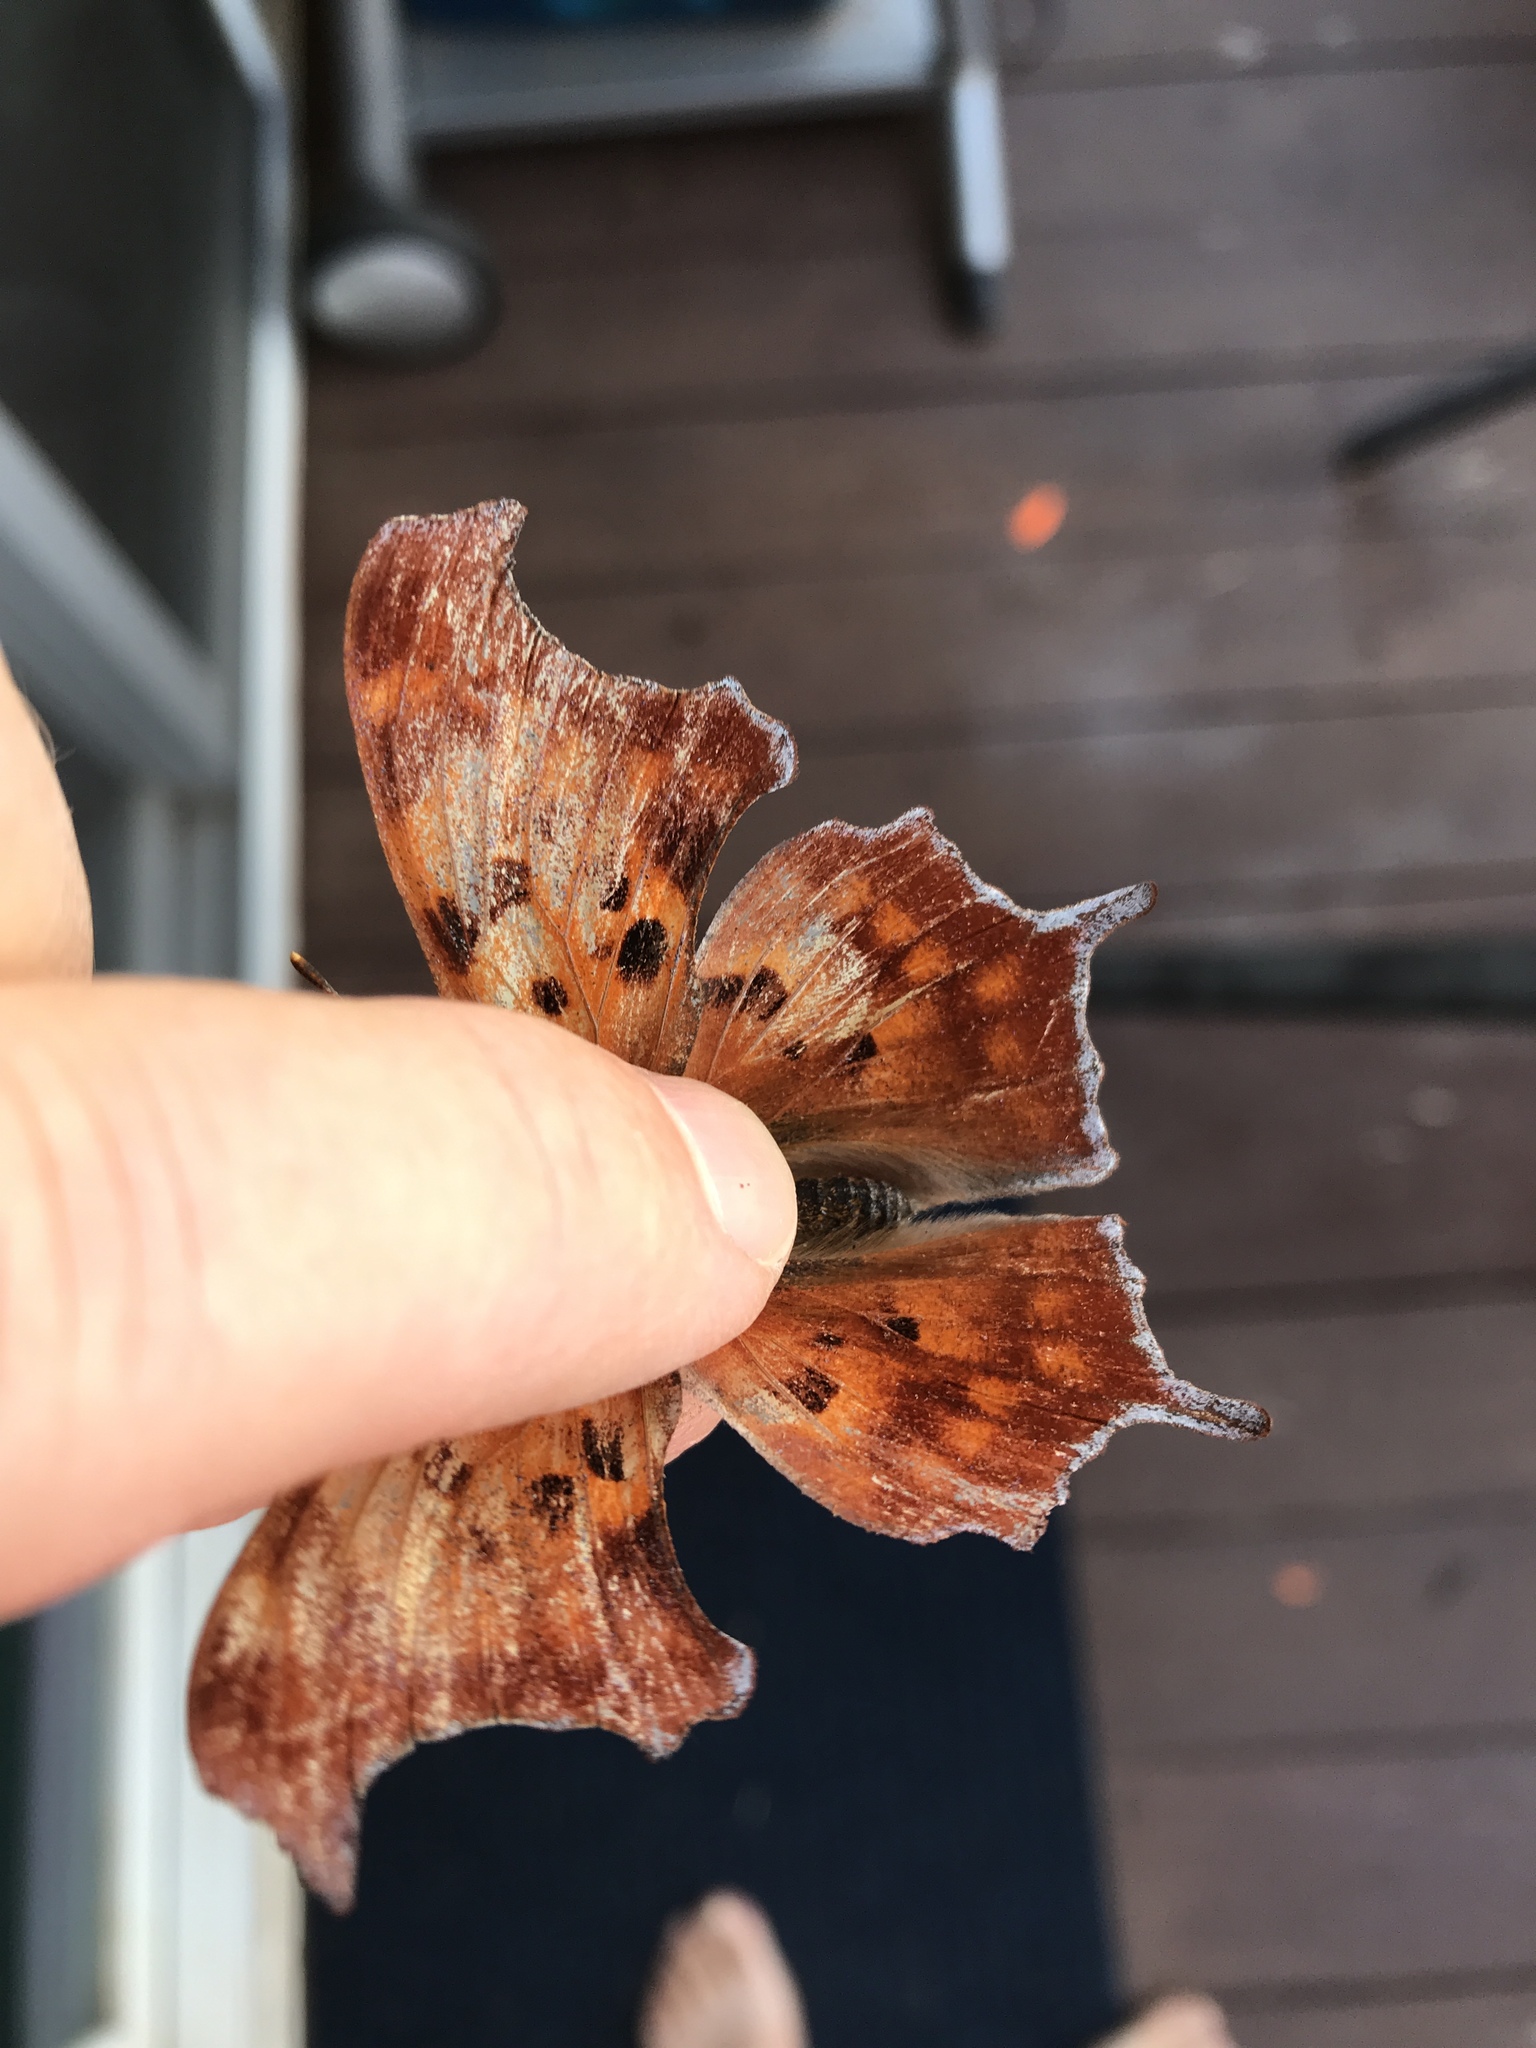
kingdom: Animalia
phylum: Arthropoda
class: Insecta
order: Lepidoptera
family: Nymphalidae
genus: Polygonia
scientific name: Polygonia interrogationis
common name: Question mark
